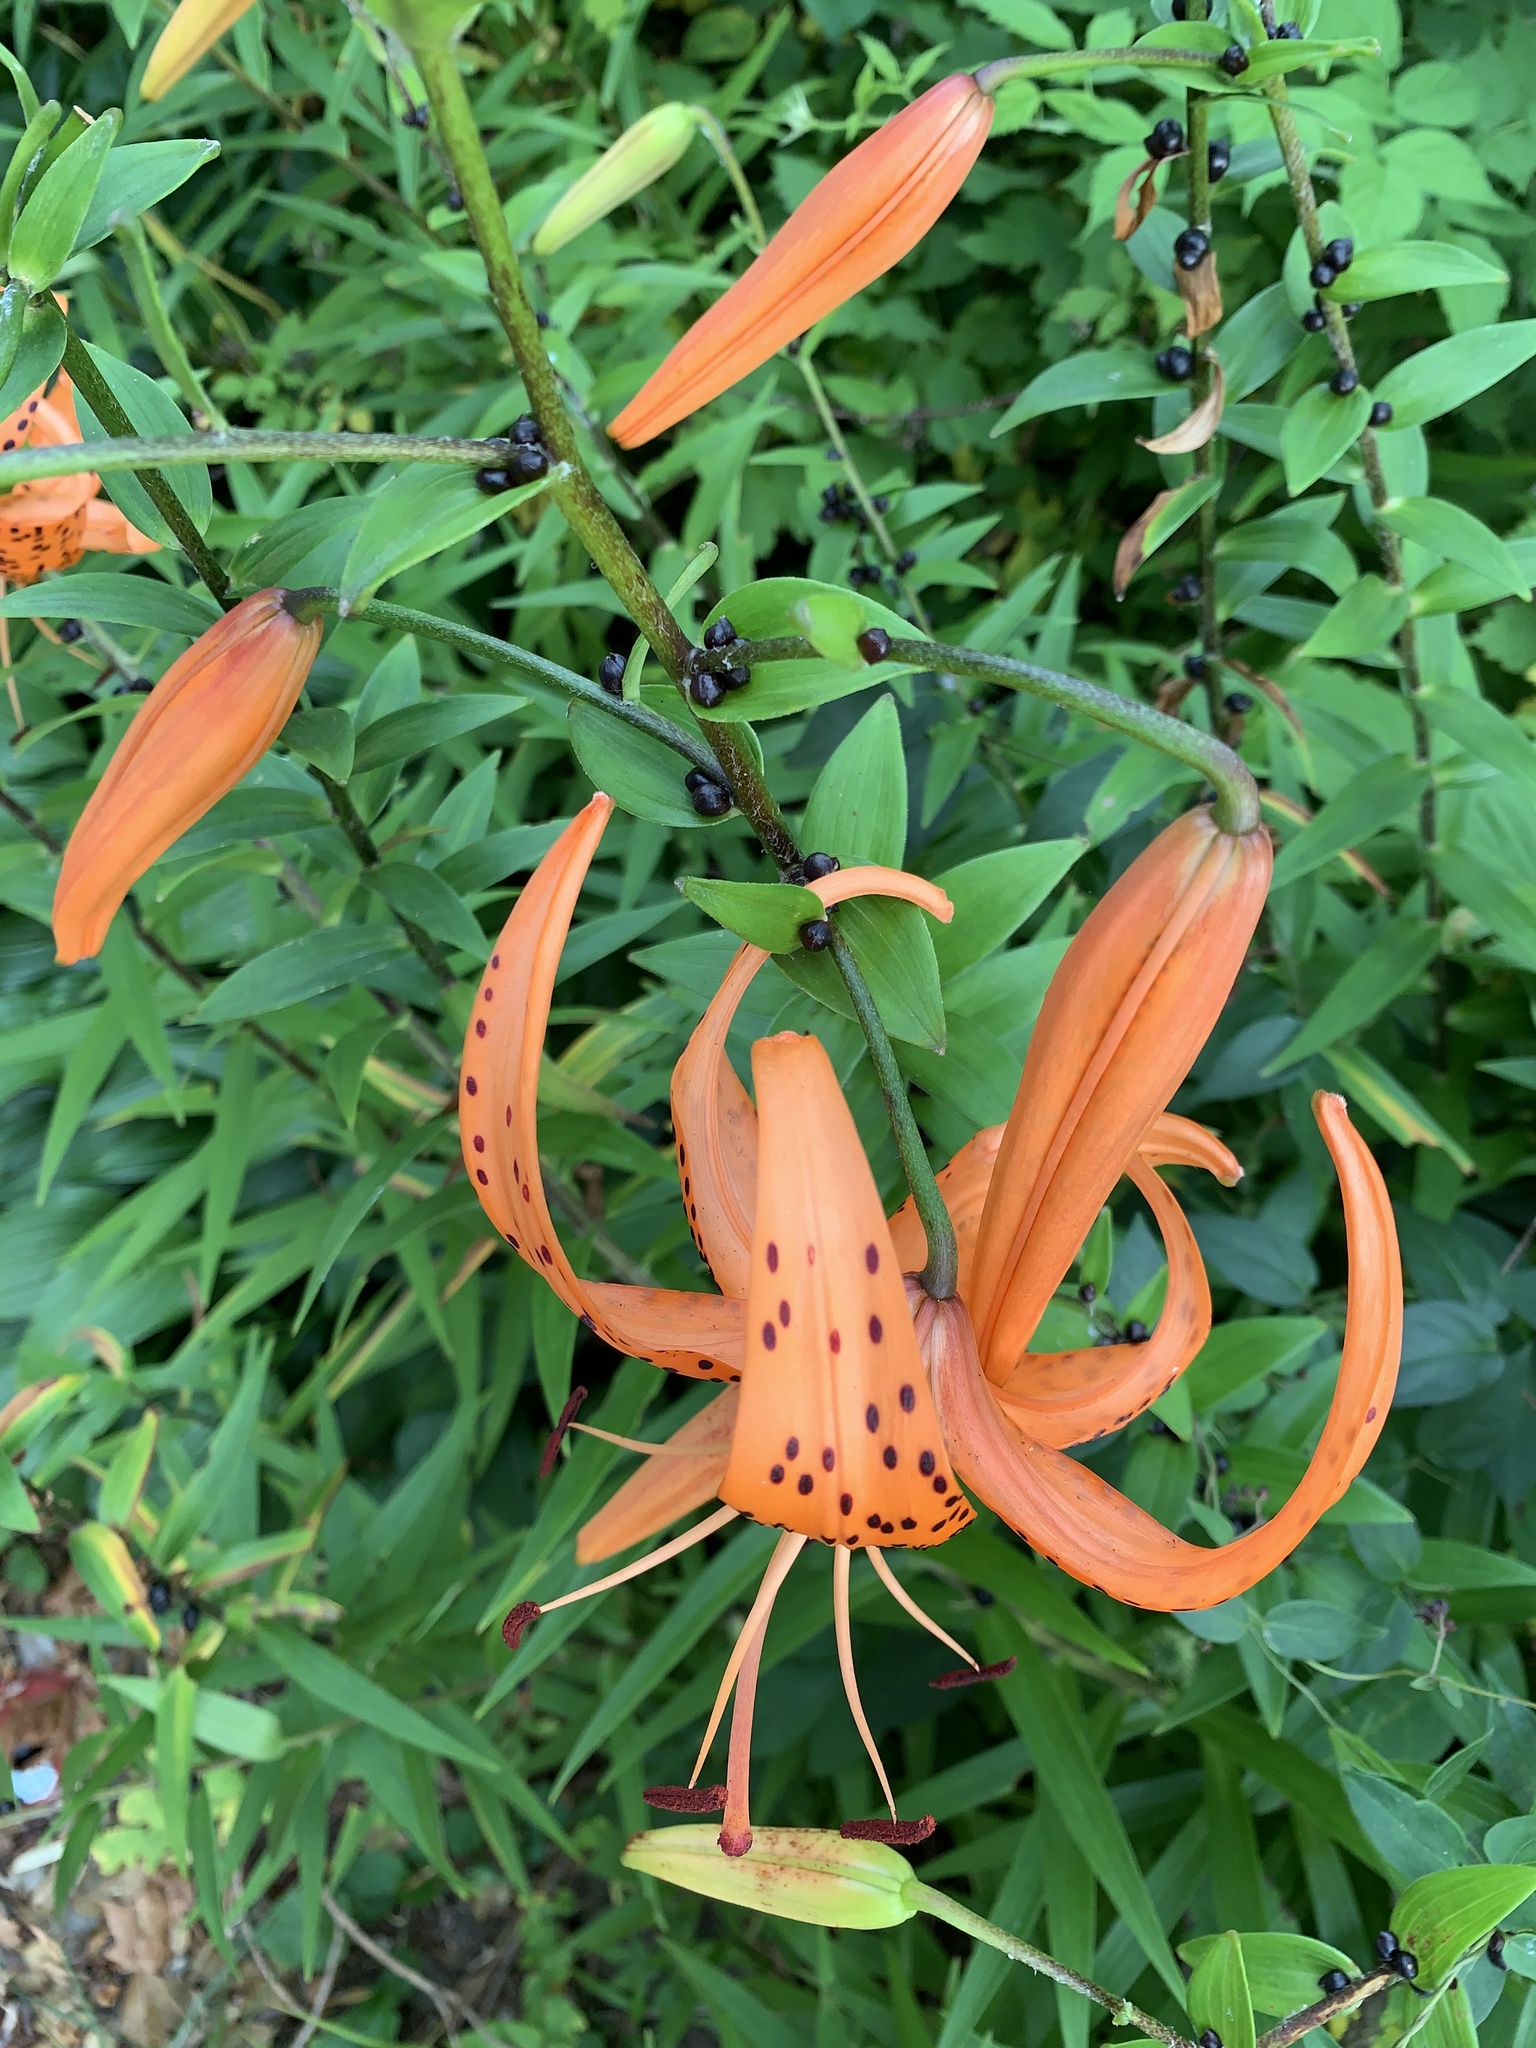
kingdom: Plantae
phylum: Tracheophyta
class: Liliopsida
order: Liliales
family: Liliaceae
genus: Lilium
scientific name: Lilium lancifolium
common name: Tiger lily
